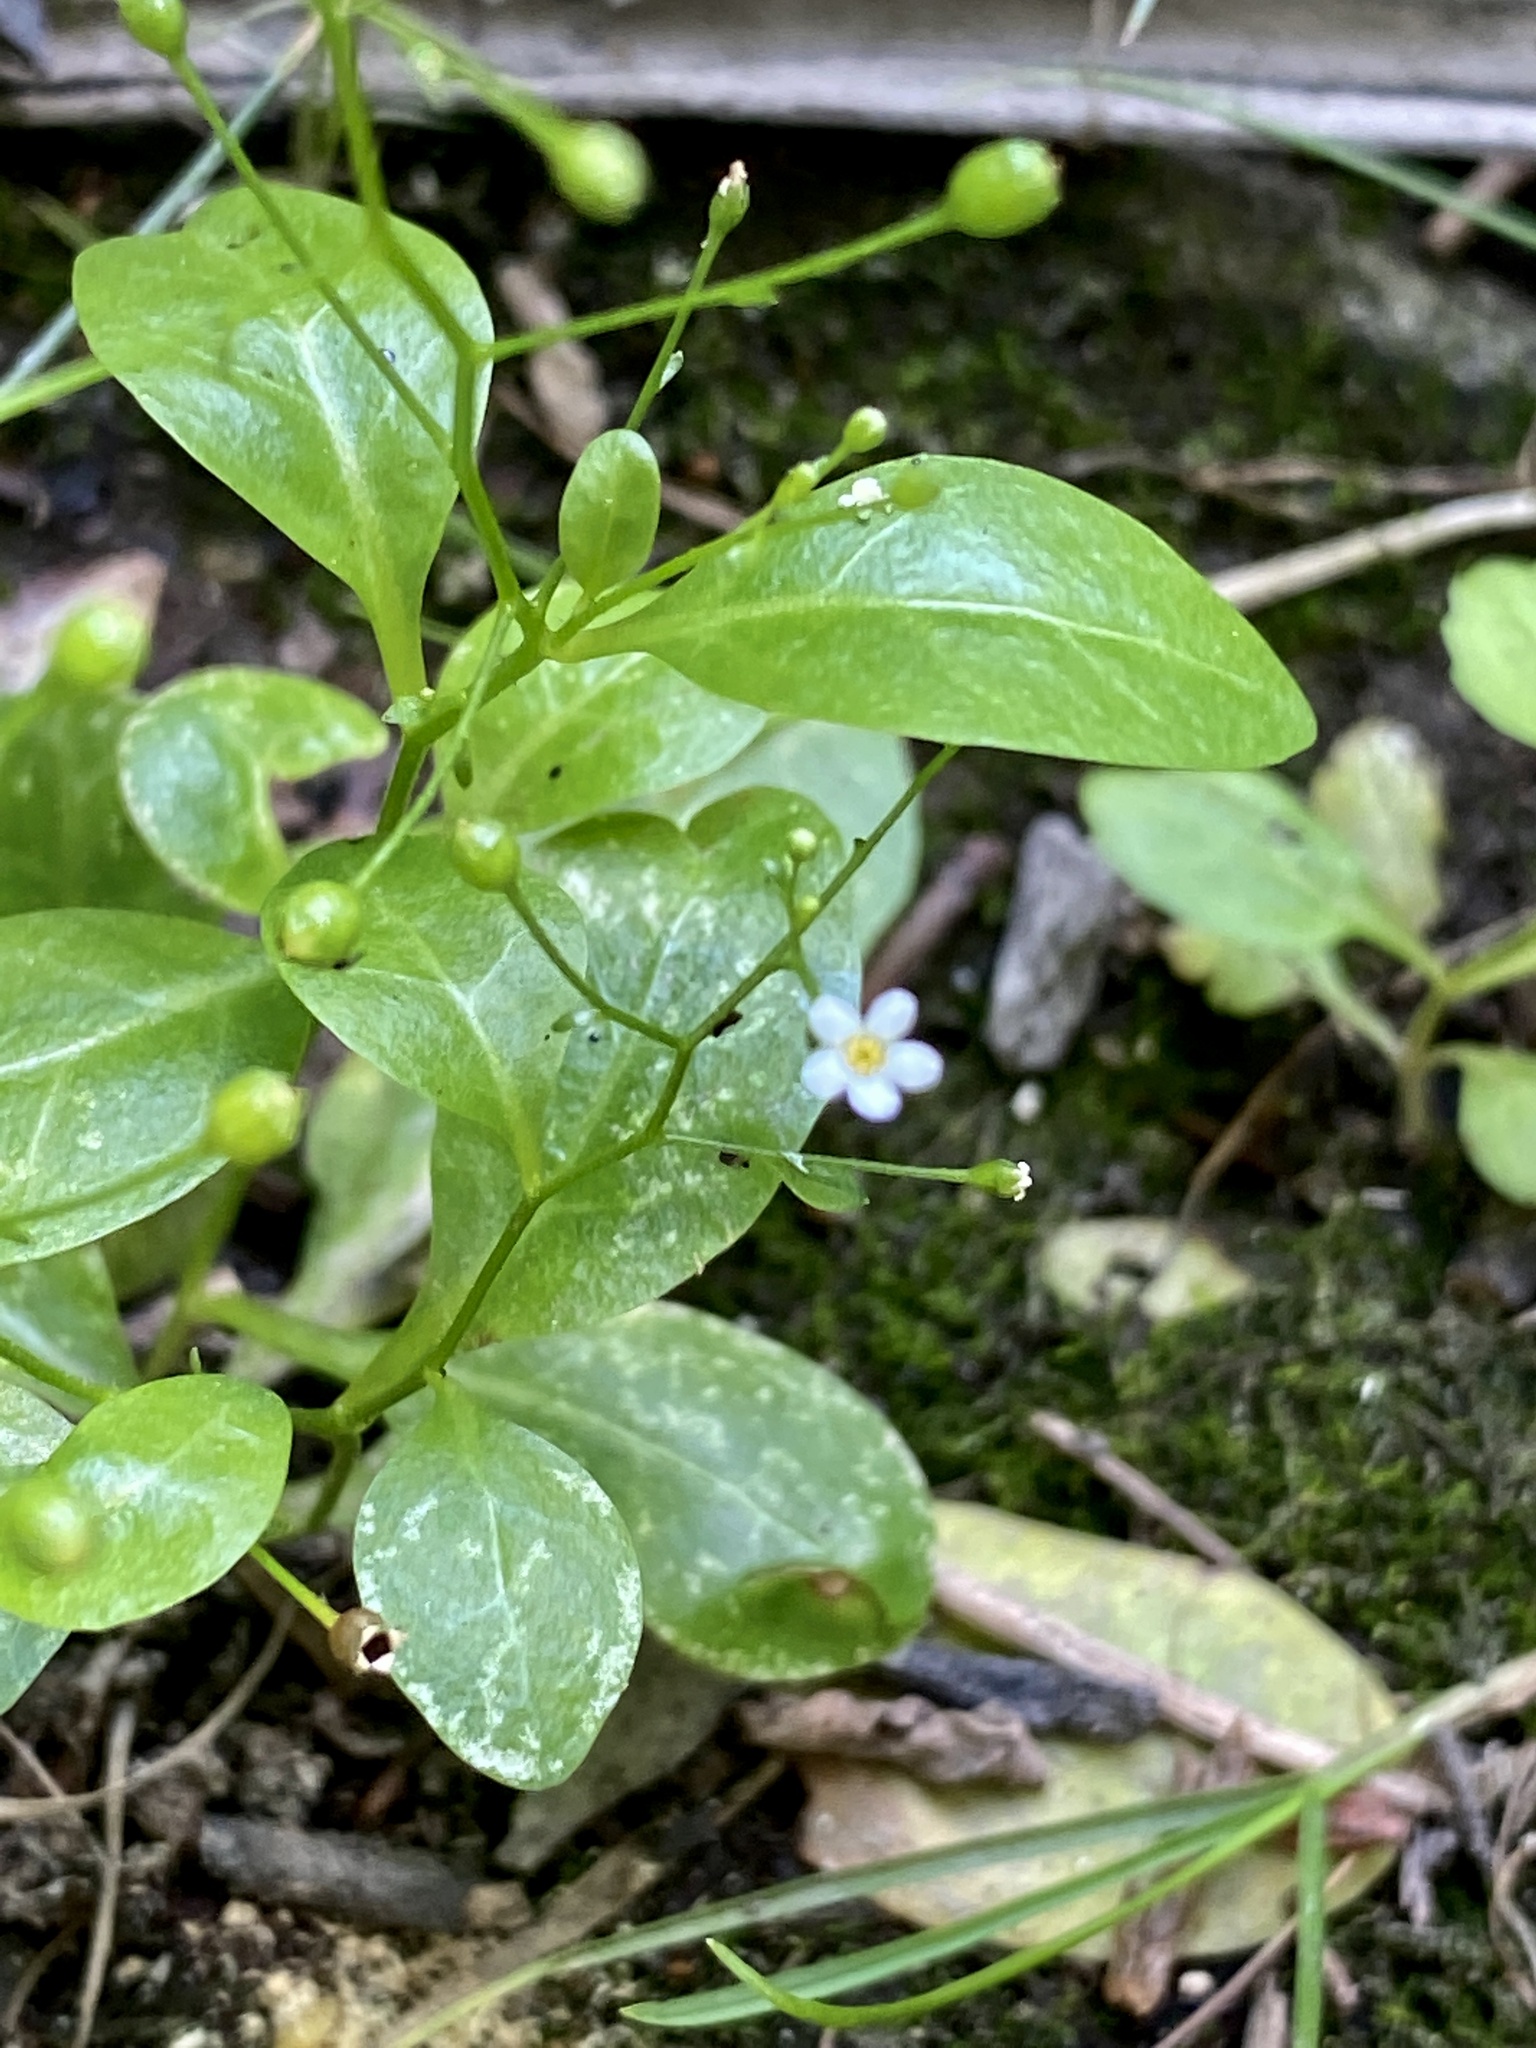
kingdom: Plantae
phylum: Tracheophyta
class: Magnoliopsida
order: Ericales
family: Primulaceae
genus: Samolus
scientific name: Samolus parviflorus
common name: False water pimpernel
